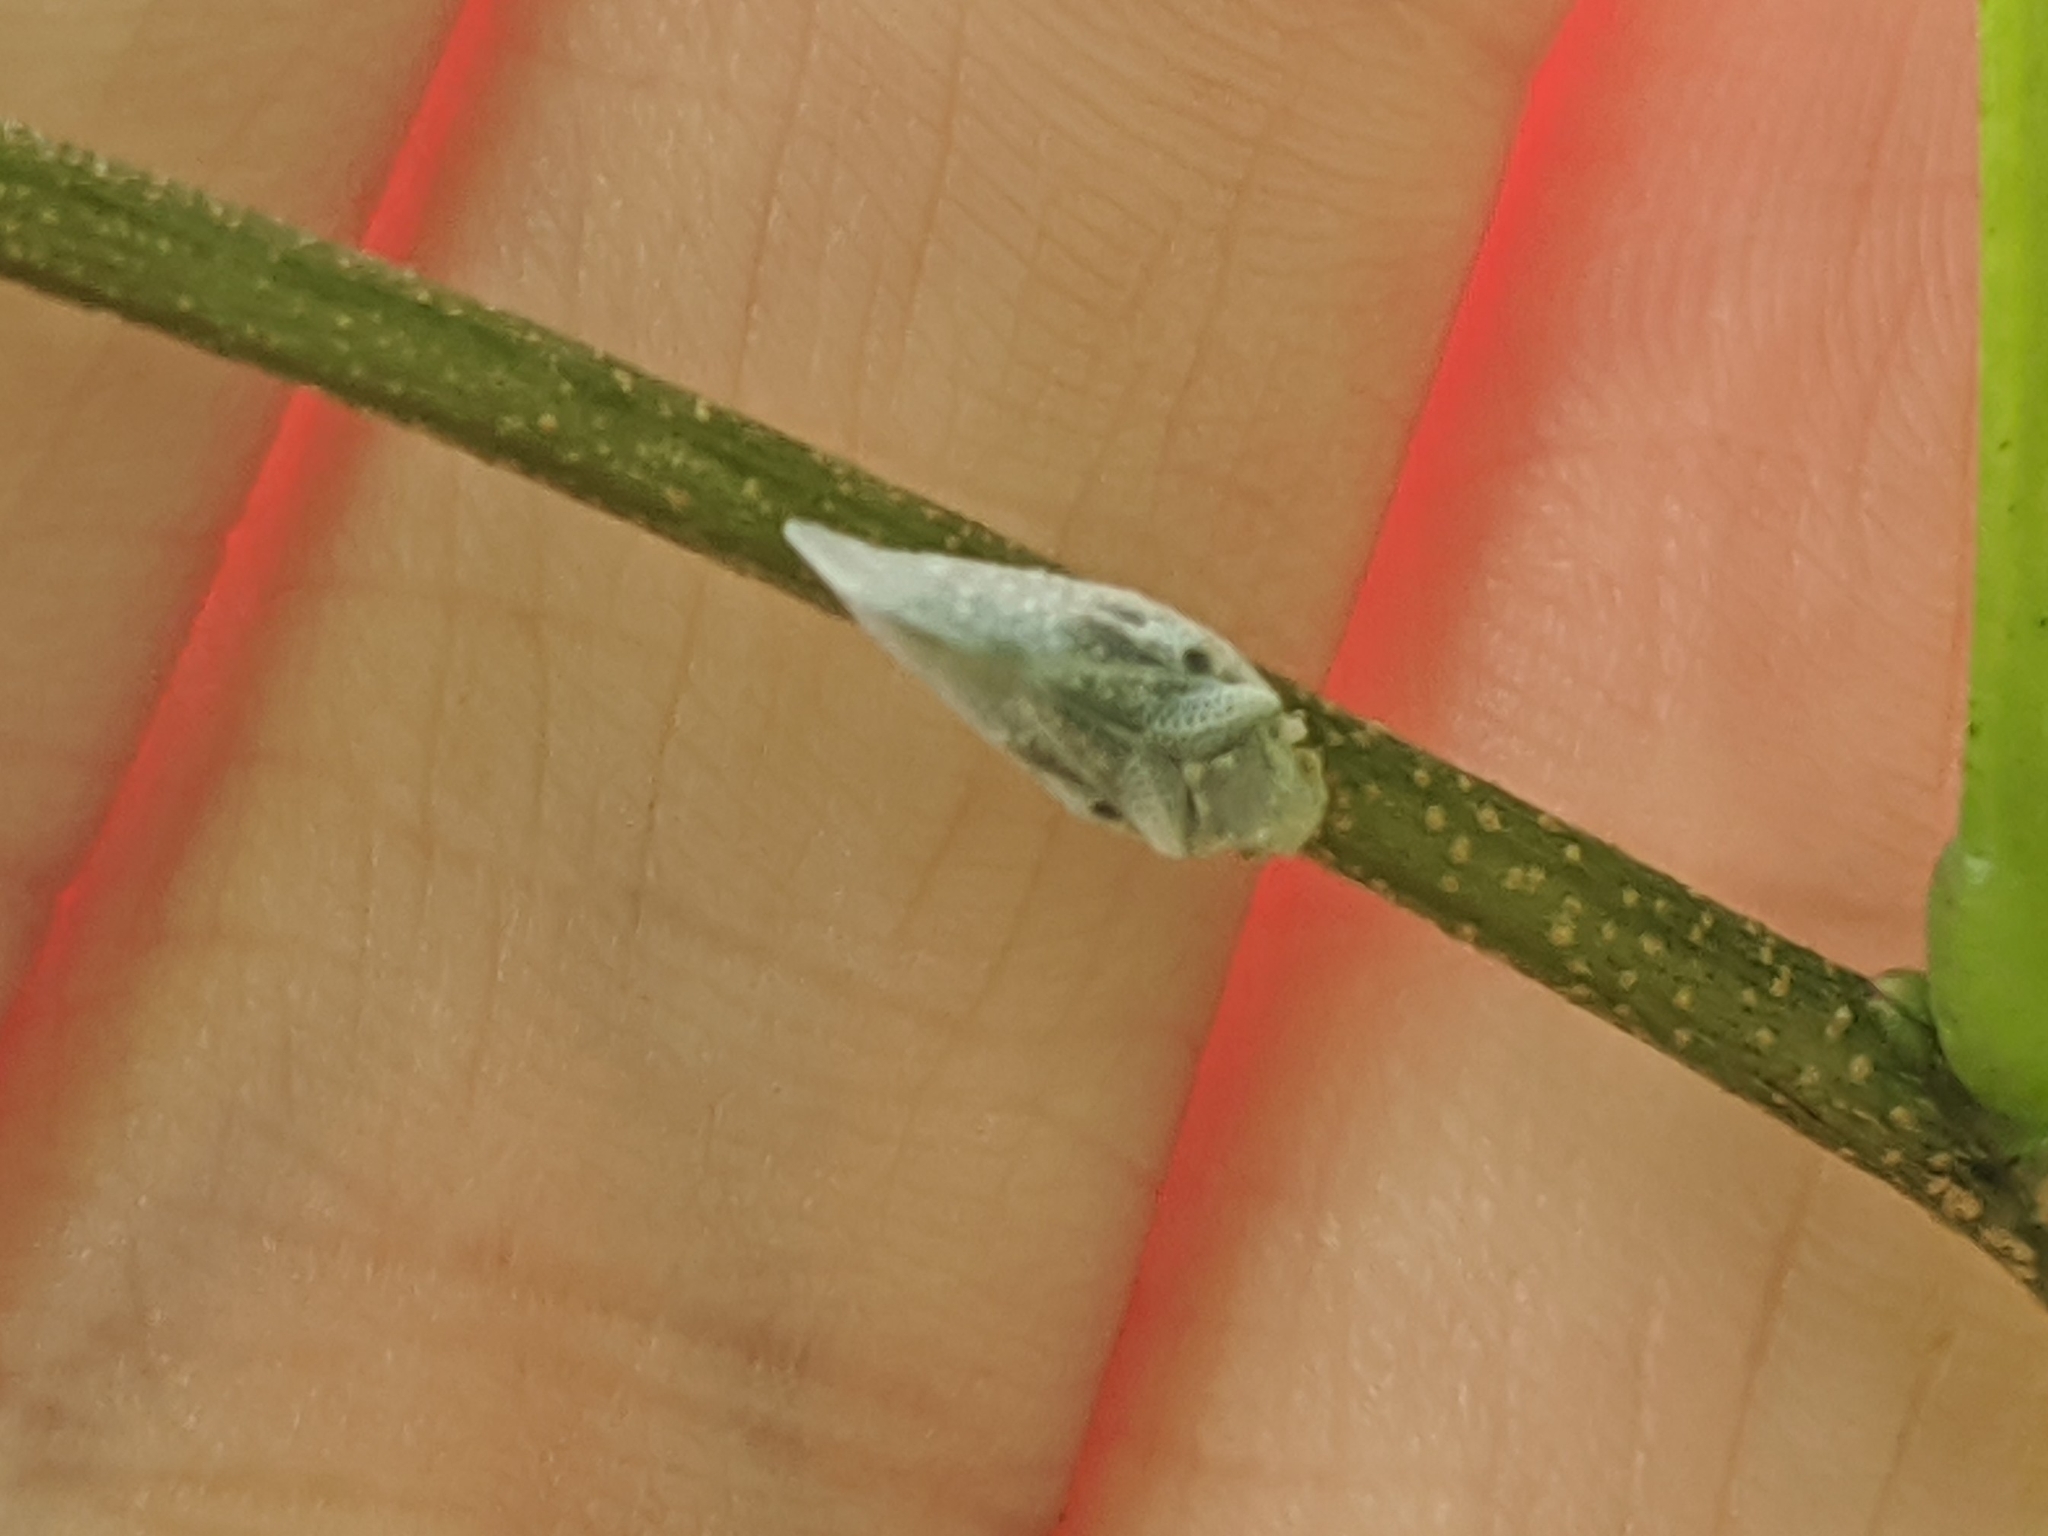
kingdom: Animalia
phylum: Arthropoda
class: Insecta
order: Hemiptera
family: Flatidae
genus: Metcalfa
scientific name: Metcalfa pruinosa
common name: Citrus flatid planthopper
